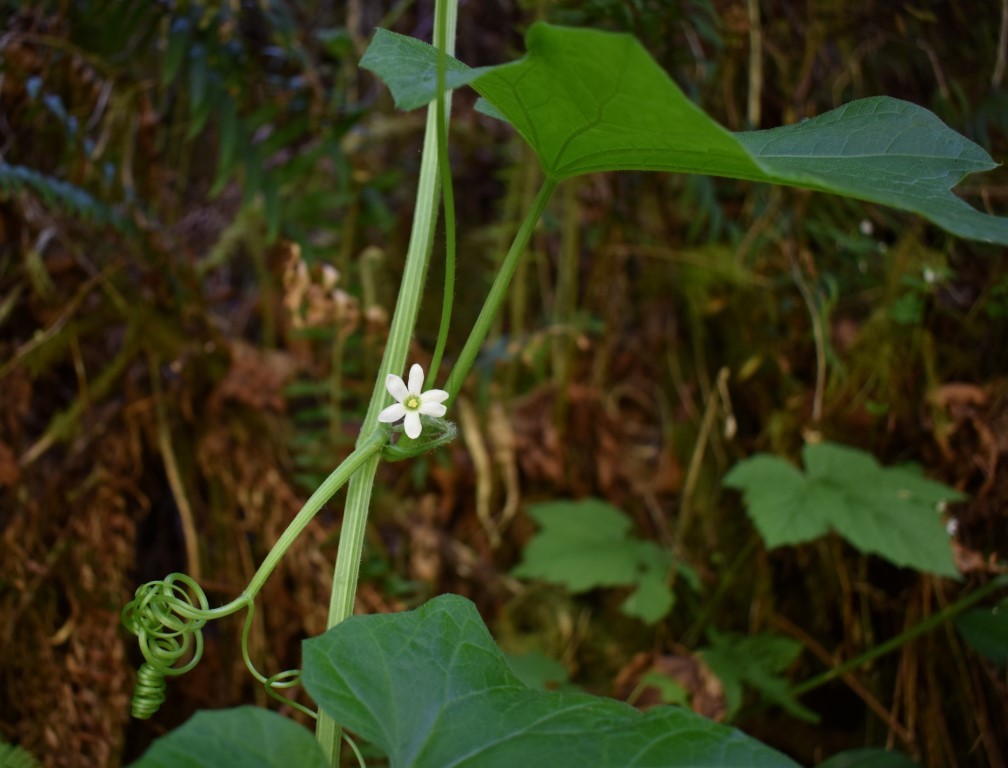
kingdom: Plantae
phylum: Tracheophyta
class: Magnoliopsida
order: Cucurbitales
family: Cucurbitaceae
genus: Marah
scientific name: Marah oregana
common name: Coastal manroot
